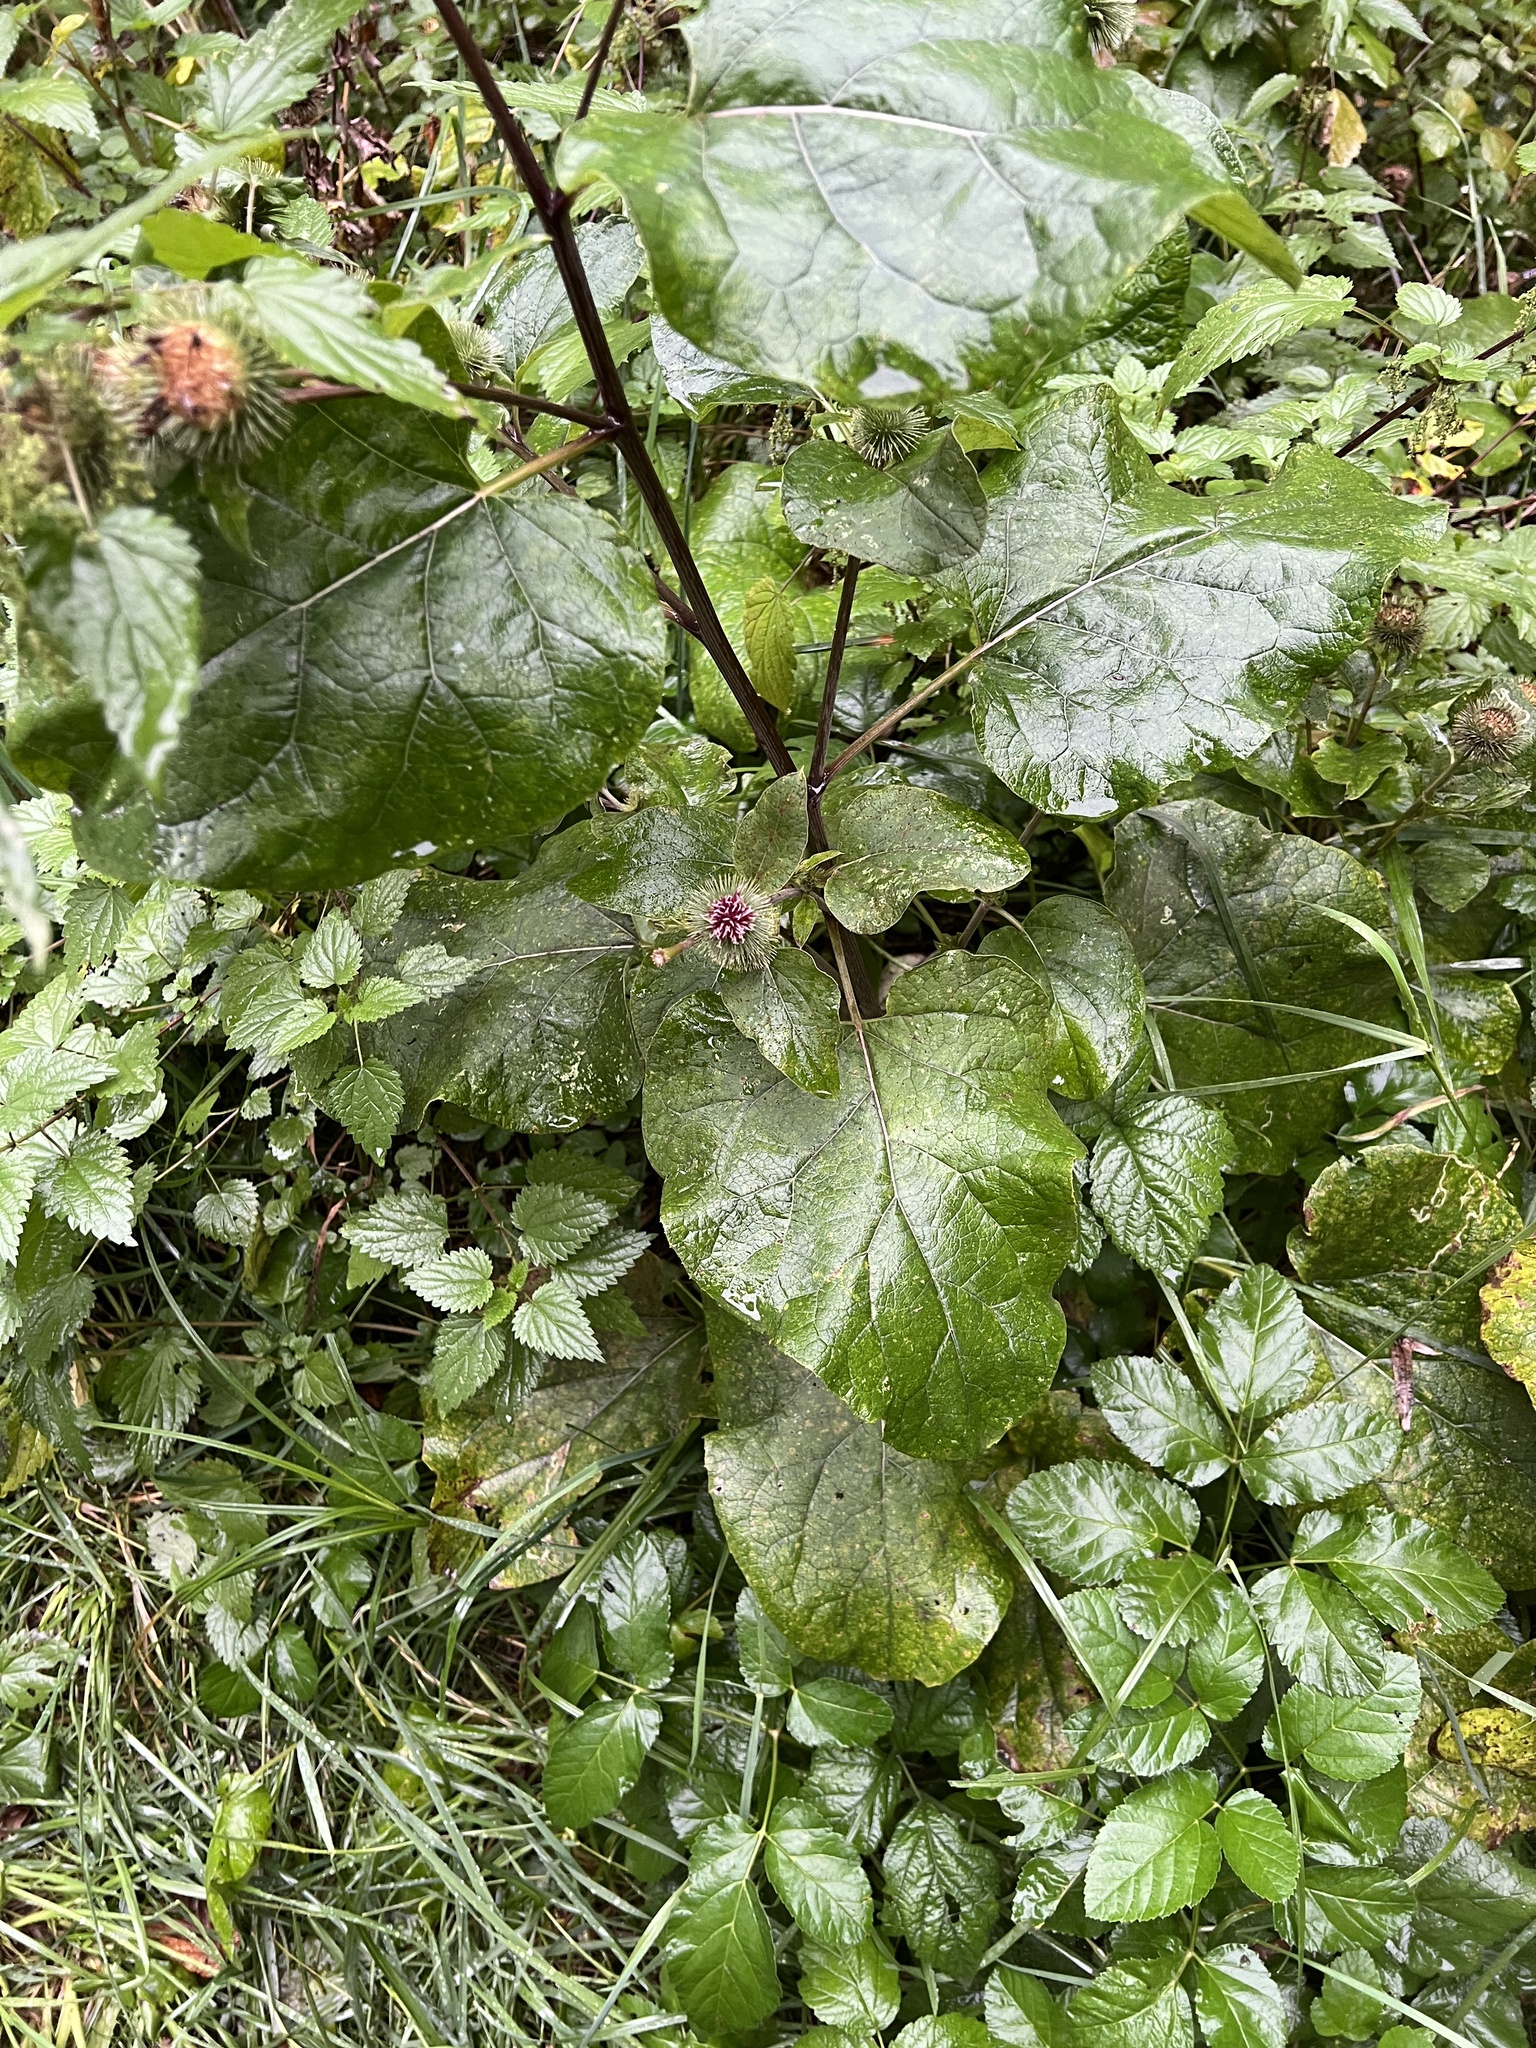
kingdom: Plantae
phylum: Tracheophyta
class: Magnoliopsida
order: Asterales
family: Asteraceae
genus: Arctium
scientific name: Arctium lappa
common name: Greater burdock
